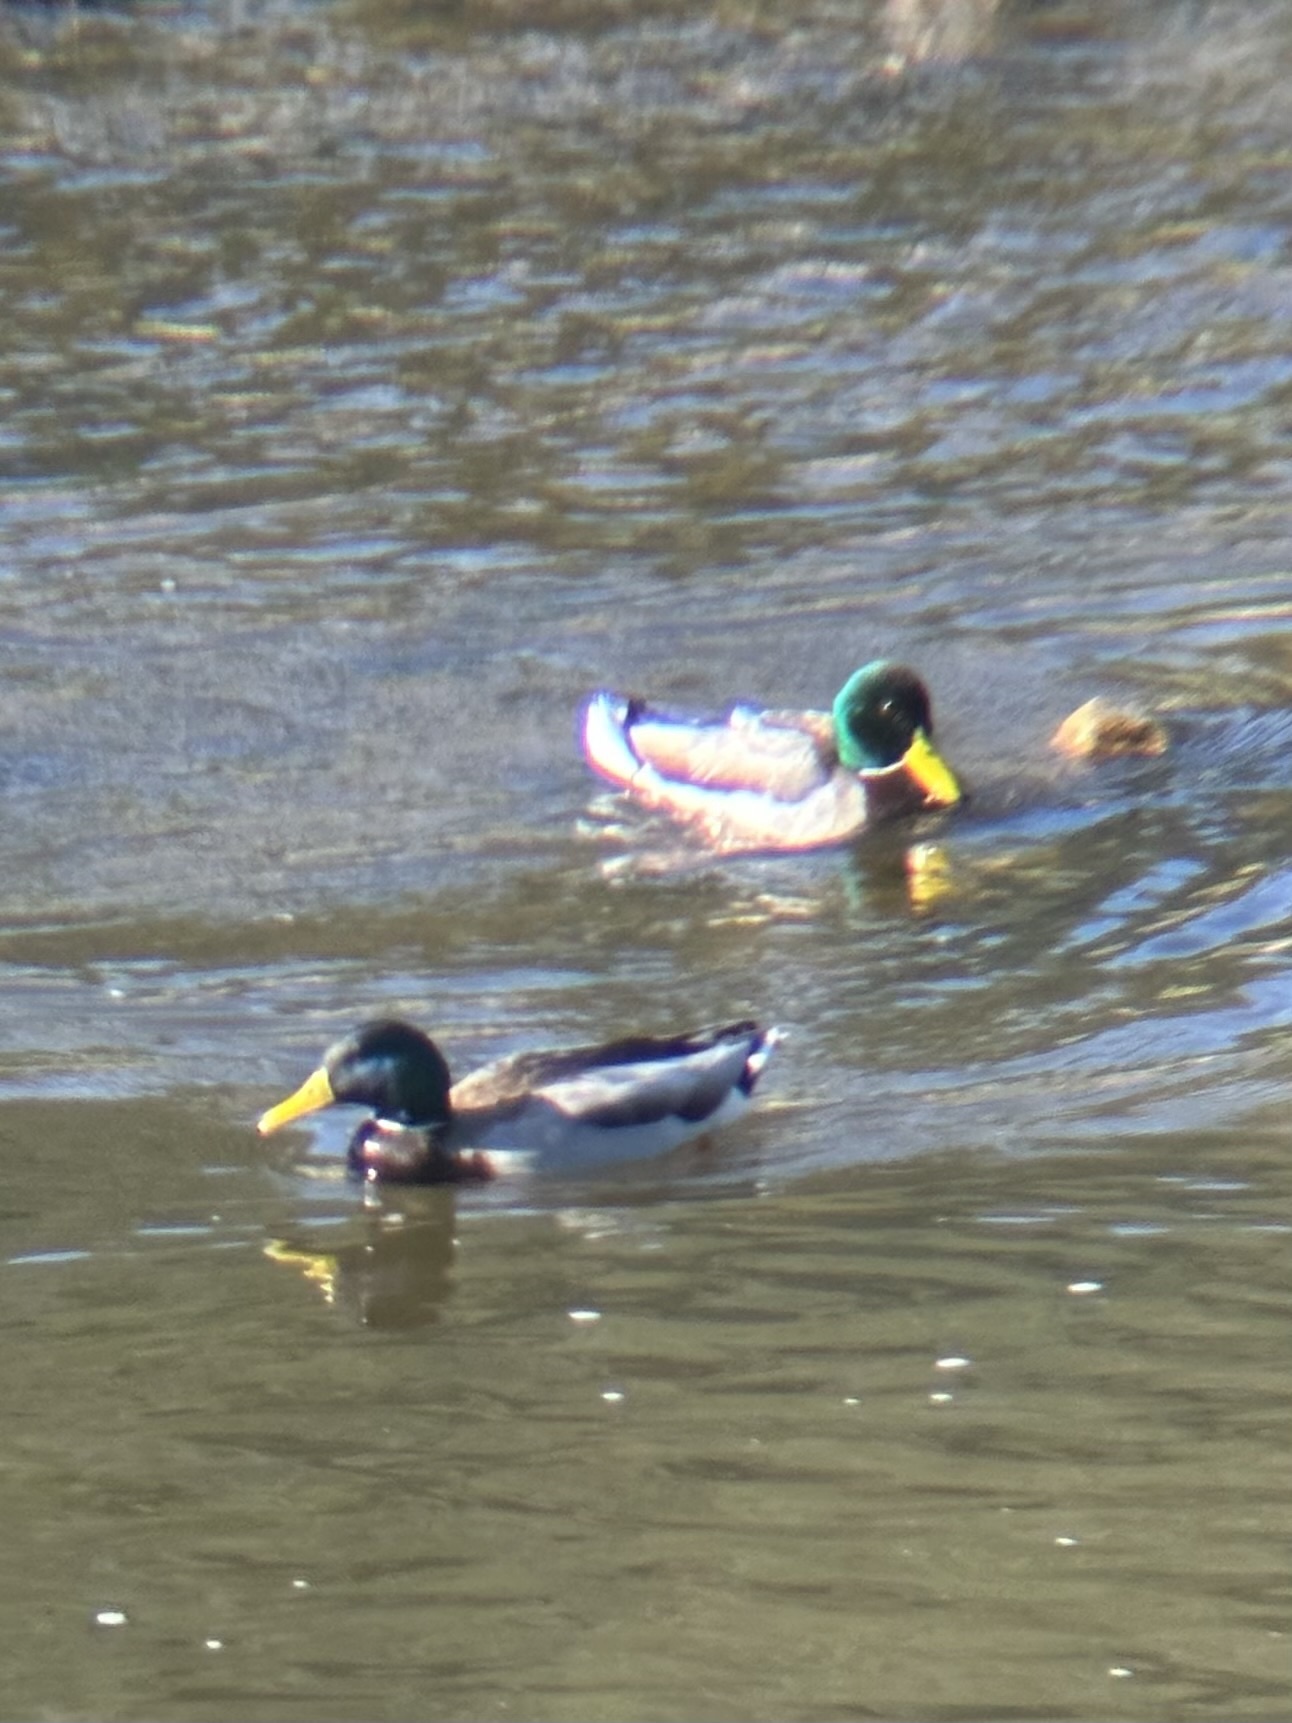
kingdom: Animalia
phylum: Chordata
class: Aves
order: Anseriformes
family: Anatidae
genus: Anas
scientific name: Anas platyrhynchos
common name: Mallard
